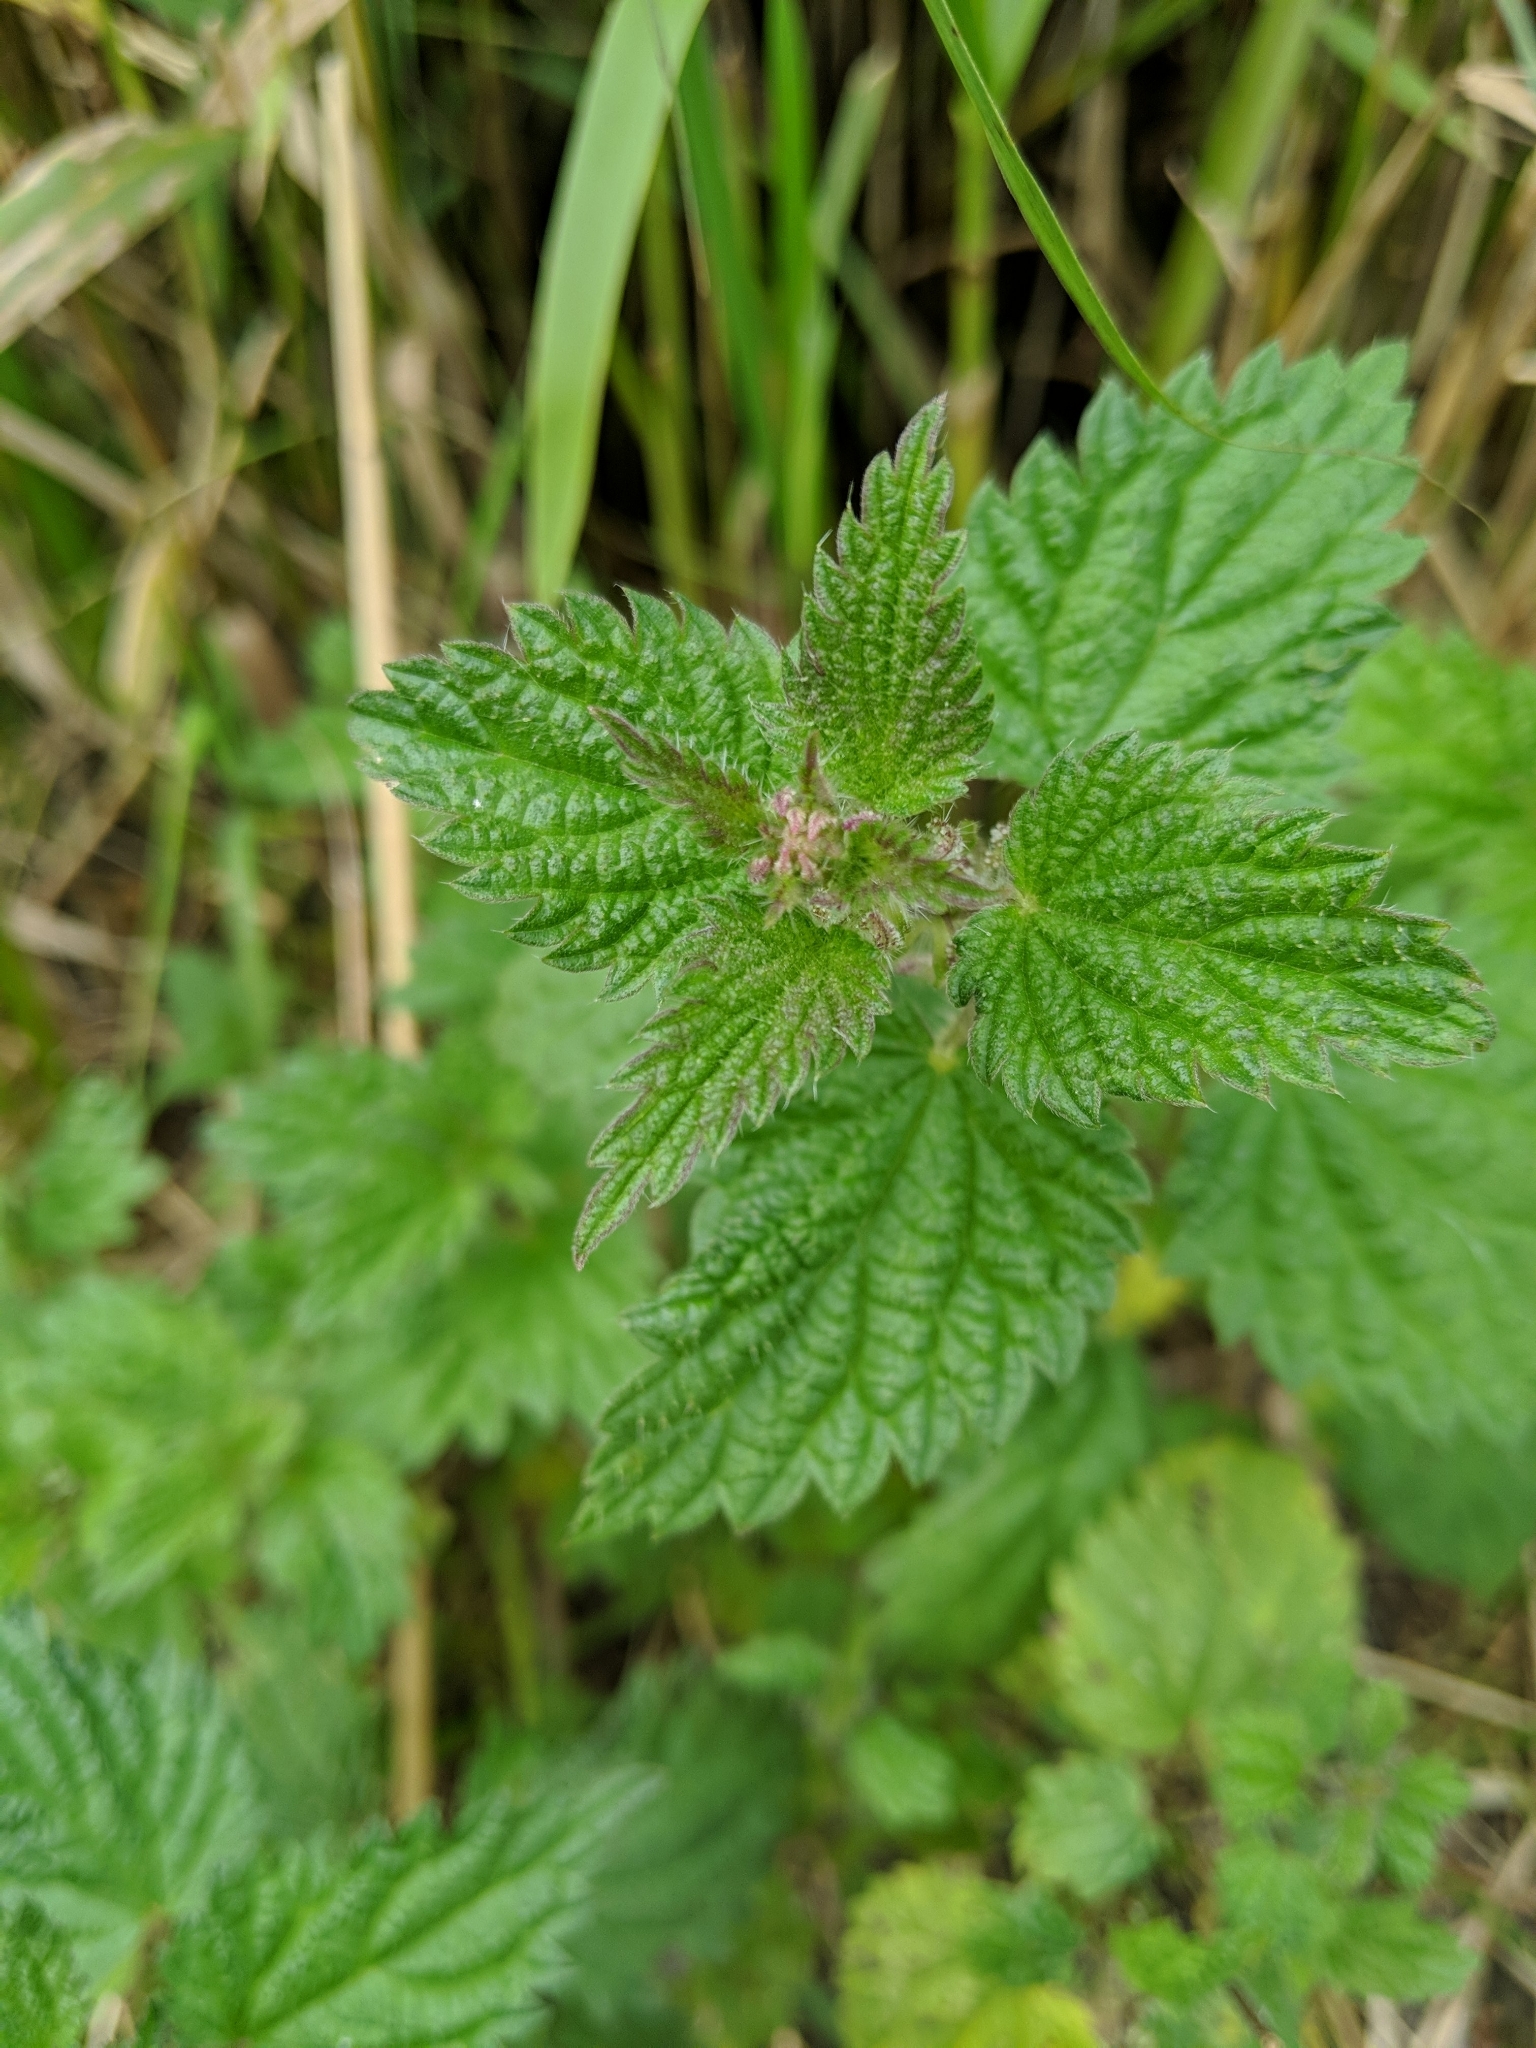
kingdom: Plantae
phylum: Tracheophyta
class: Magnoliopsida
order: Rosales
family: Urticaceae
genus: Urtica
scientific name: Urtica dioica
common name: Common nettle
